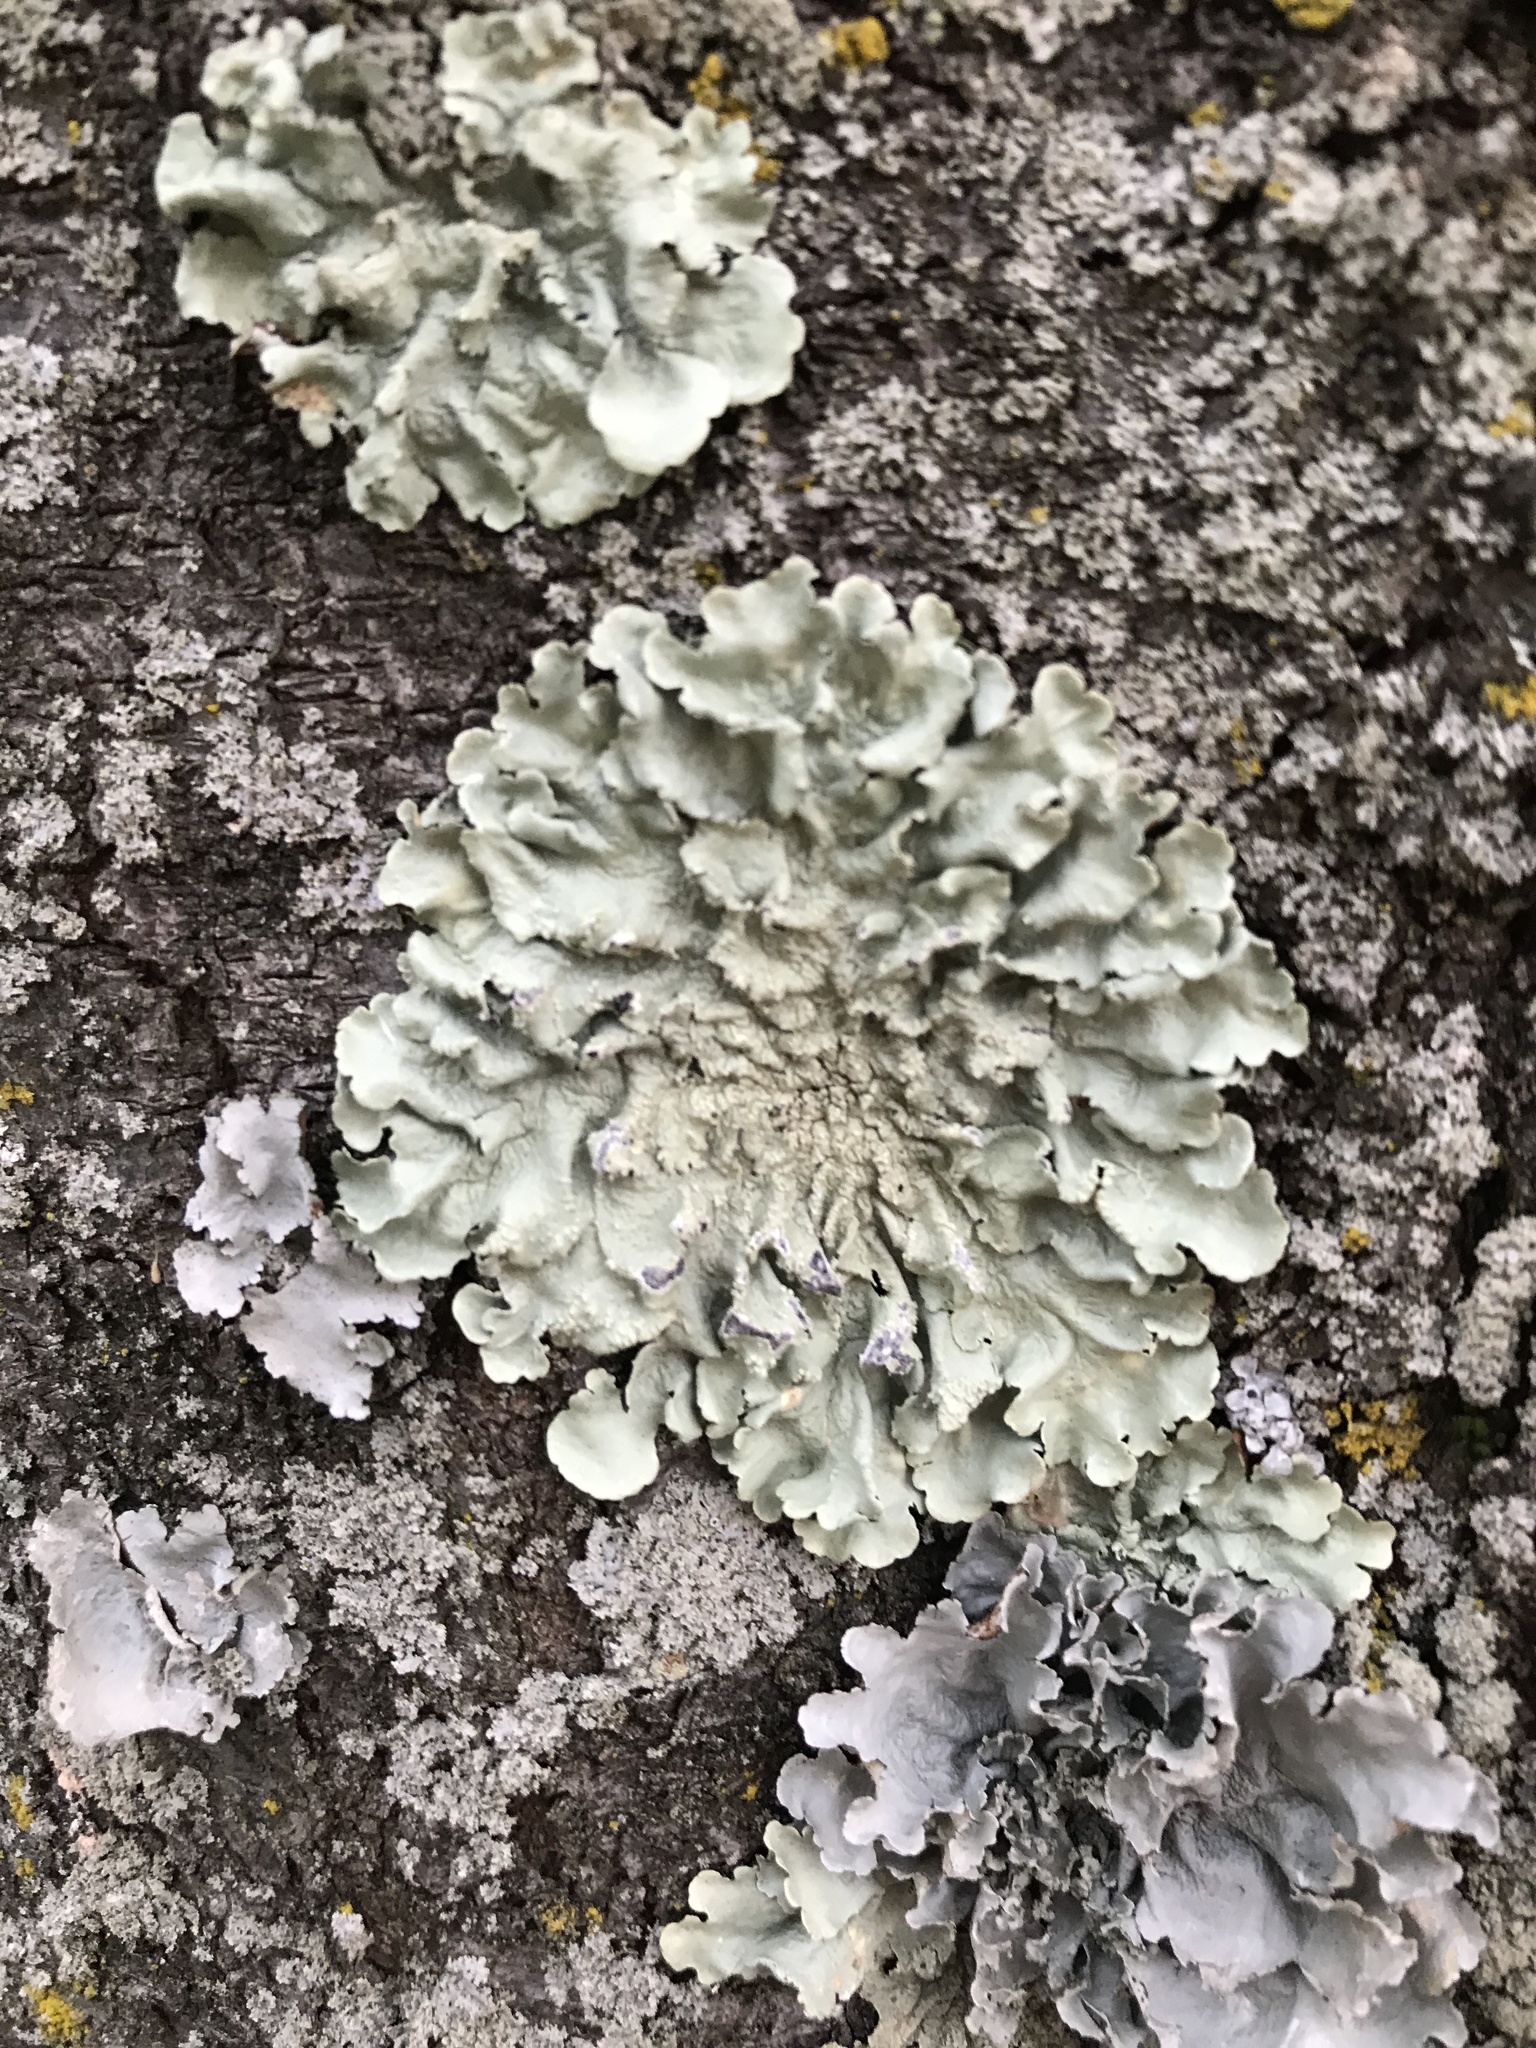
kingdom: Fungi
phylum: Ascomycota
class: Lecanoromycetes
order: Lecanorales
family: Parmeliaceae
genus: Flavoparmelia
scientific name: Flavoparmelia caperata
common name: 40-mile per hour lichen
